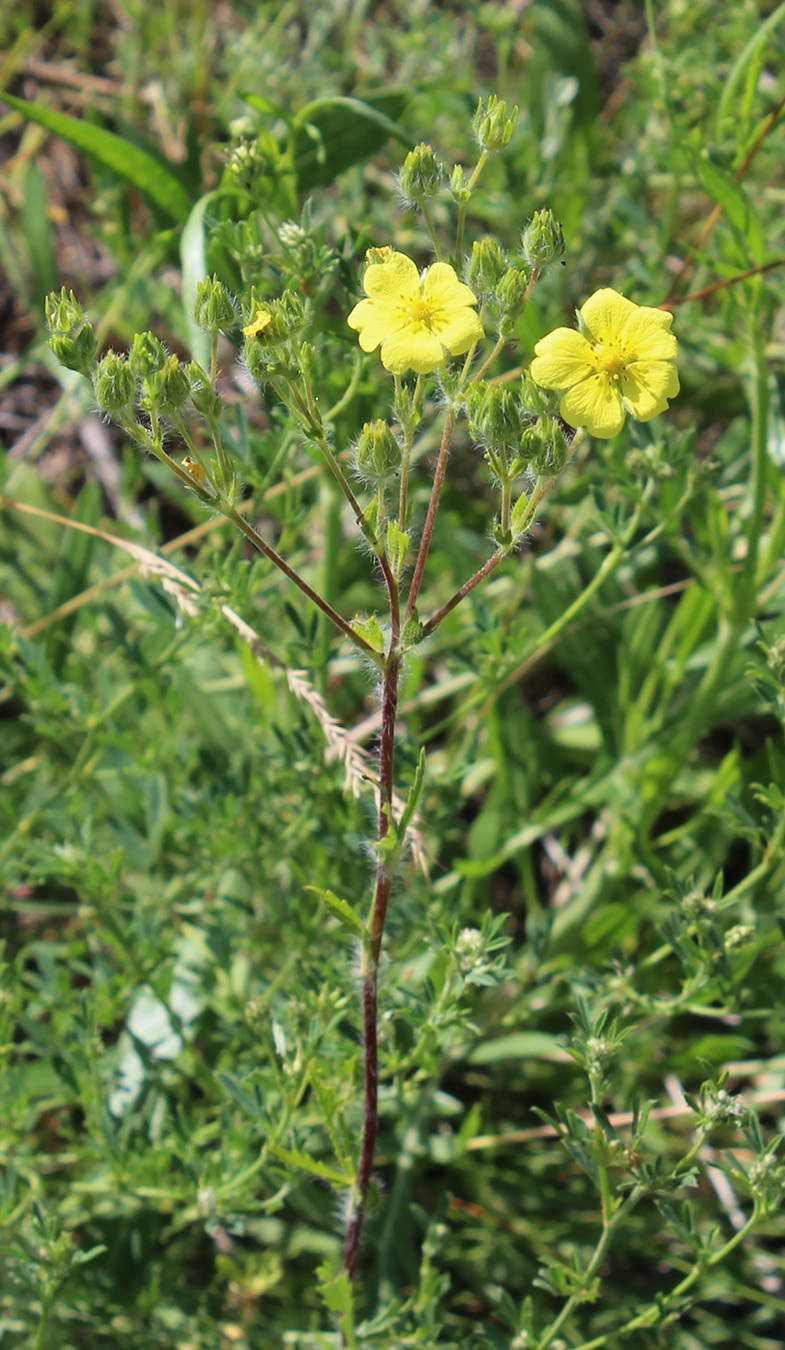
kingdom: Plantae
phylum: Tracheophyta
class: Magnoliopsida
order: Rosales
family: Rosaceae
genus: Potentilla
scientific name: Potentilla recta
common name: Sulphur cinquefoil
